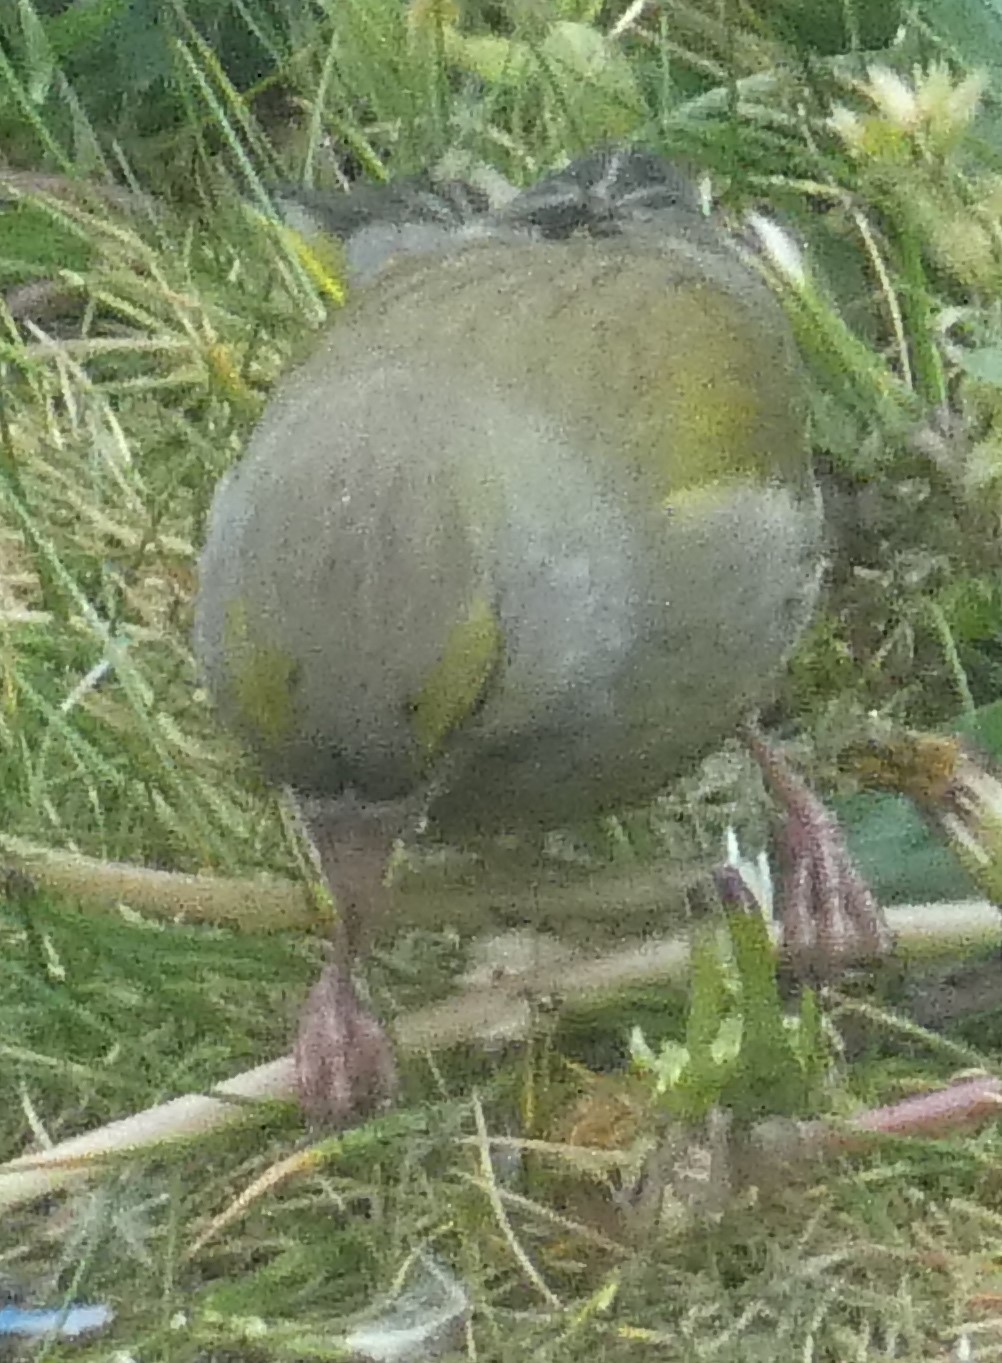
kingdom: Plantae
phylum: Tracheophyta
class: Liliopsida
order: Poales
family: Poaceae
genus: Chloris
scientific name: Chloris chloris
